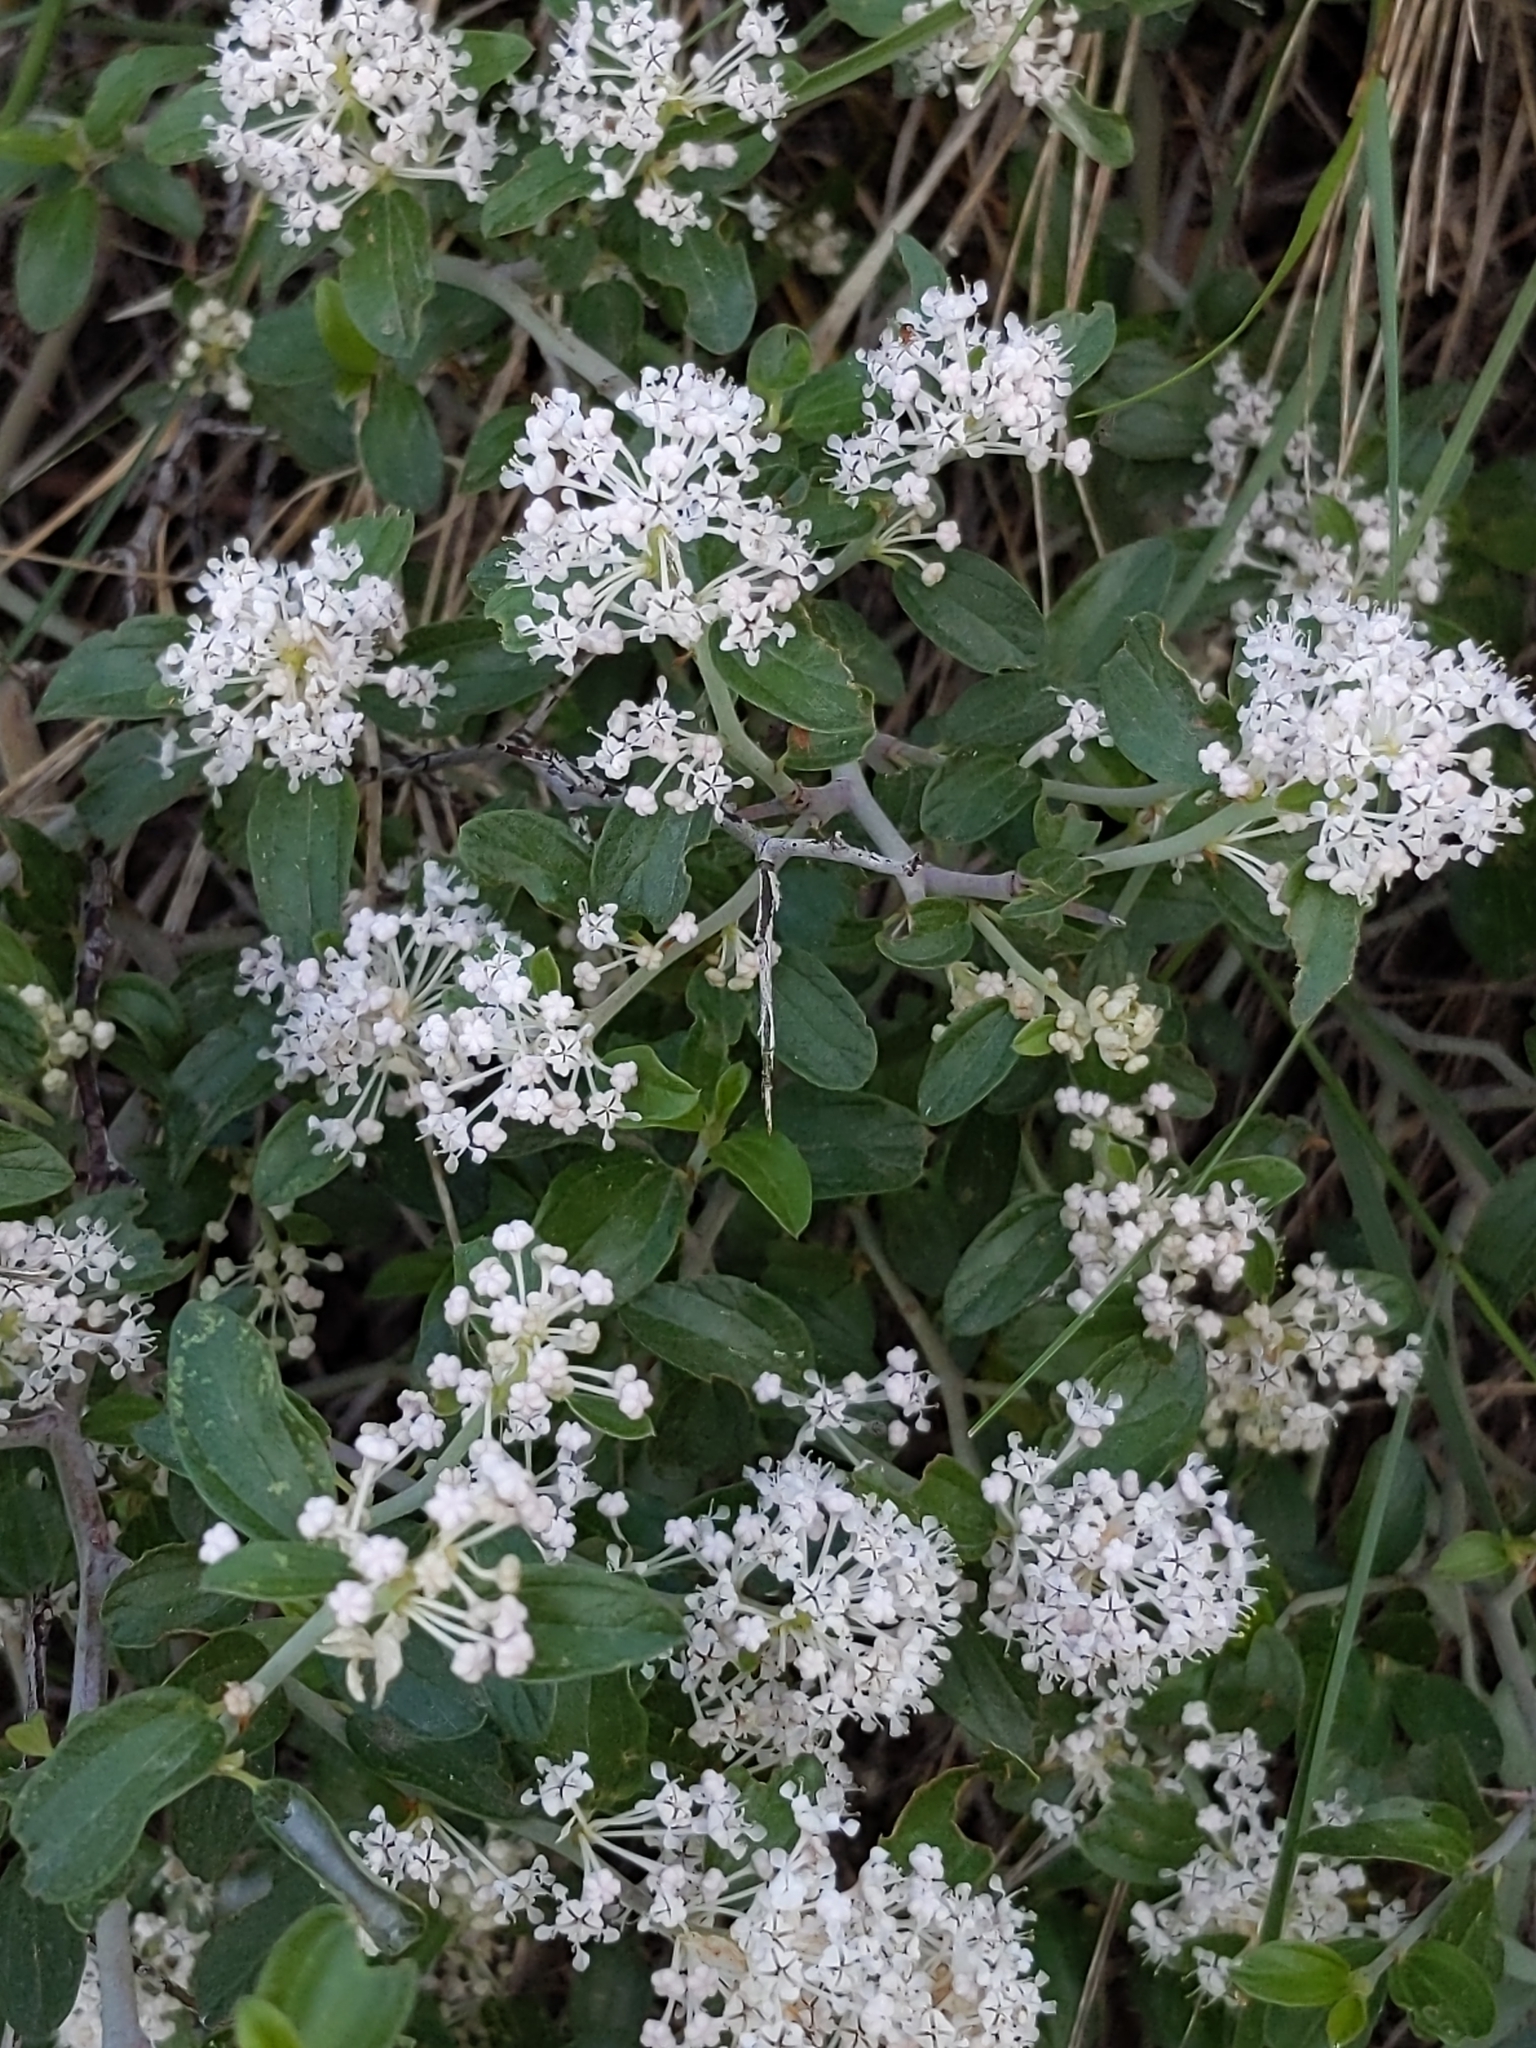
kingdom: Plantae
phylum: Tracheophyta
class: Magnoliopsida
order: Rosales
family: Rhamnaceae
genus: Ceanothus
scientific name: Ceanothus fendleri
